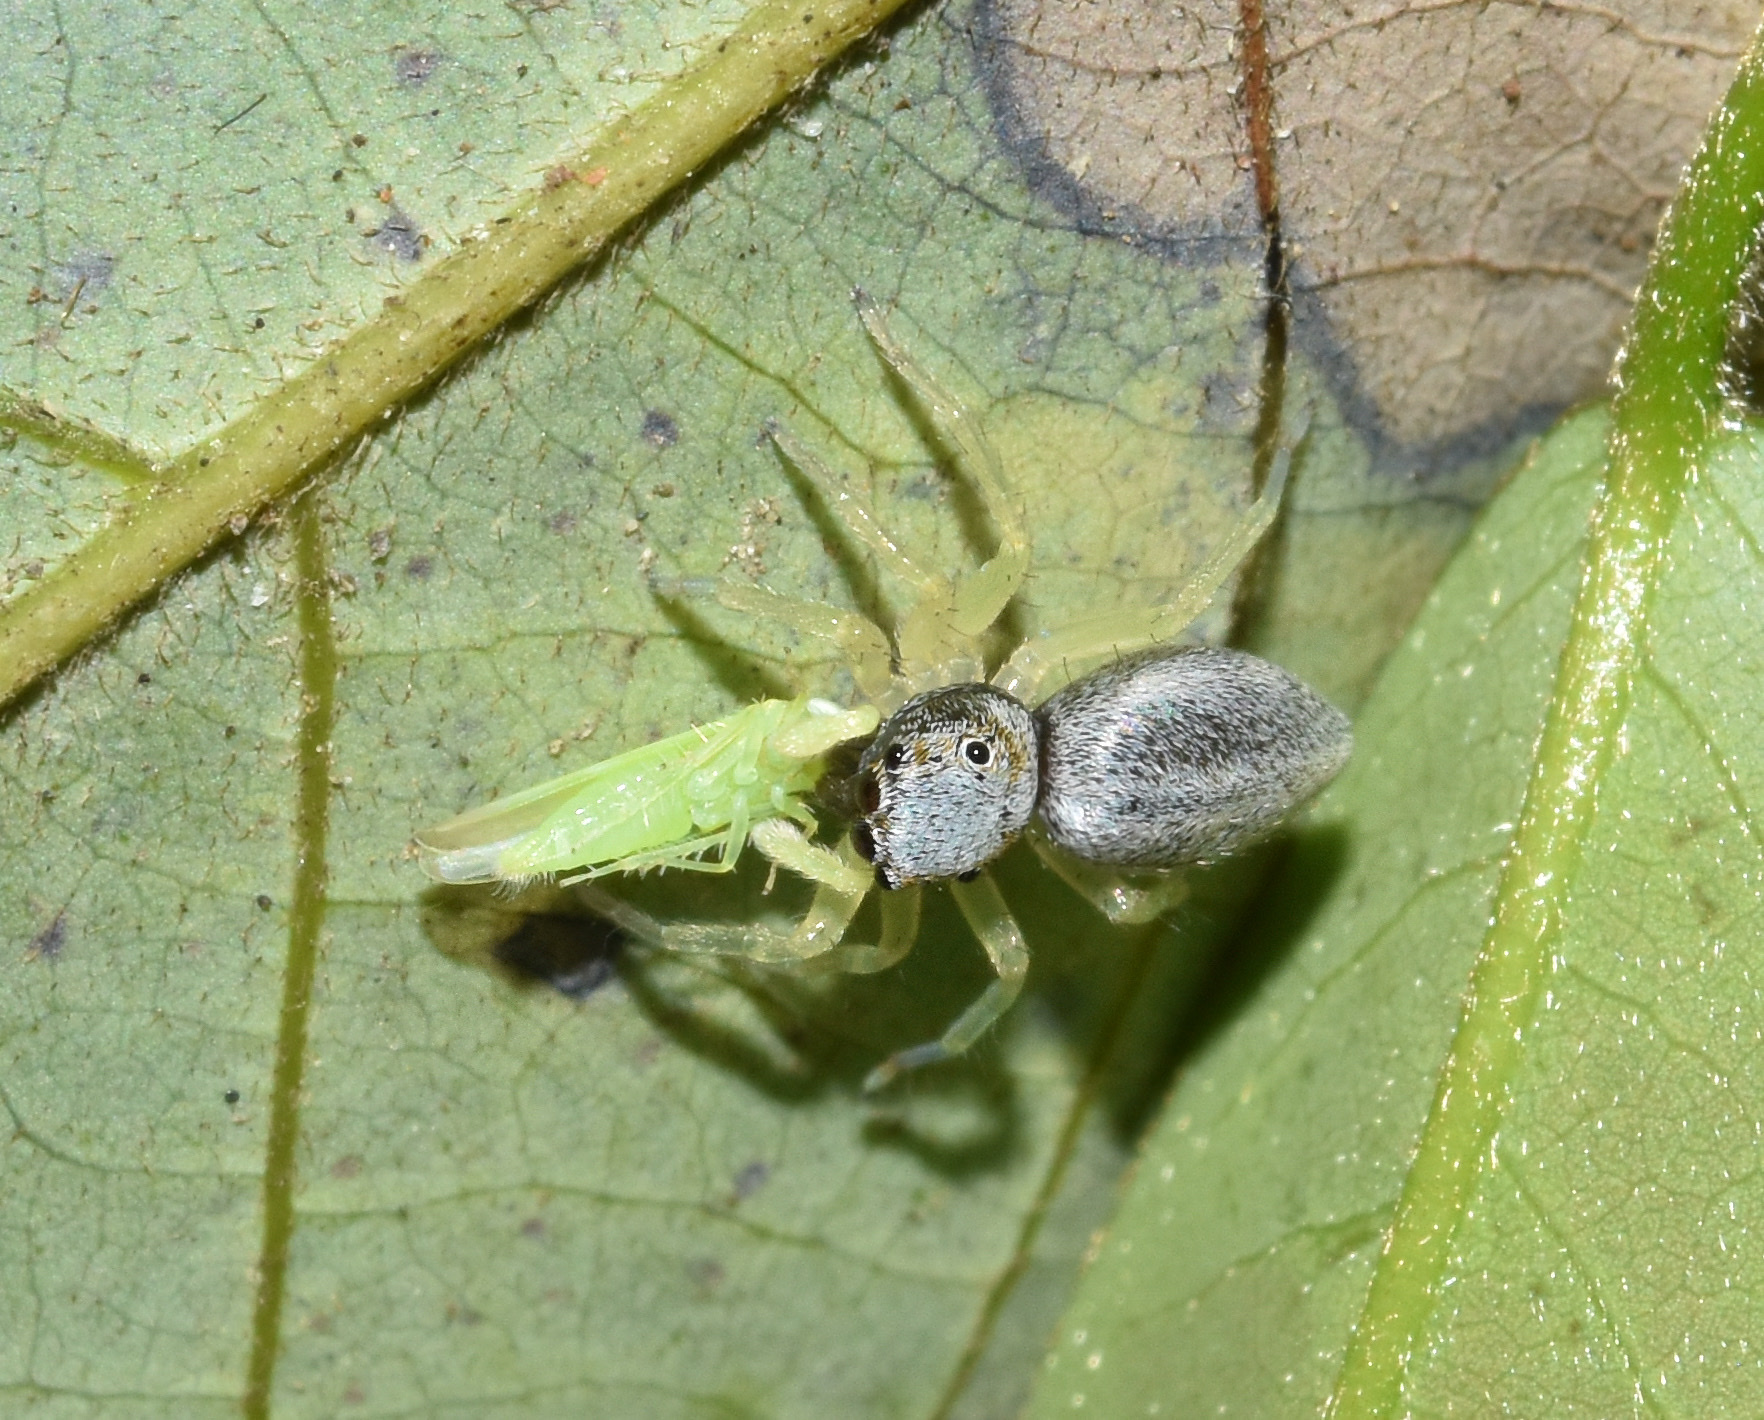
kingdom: Animalia
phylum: Arthropoda
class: Arachnida
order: Araneae
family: Salticidae
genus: Phintella
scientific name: Phintella lajuma
